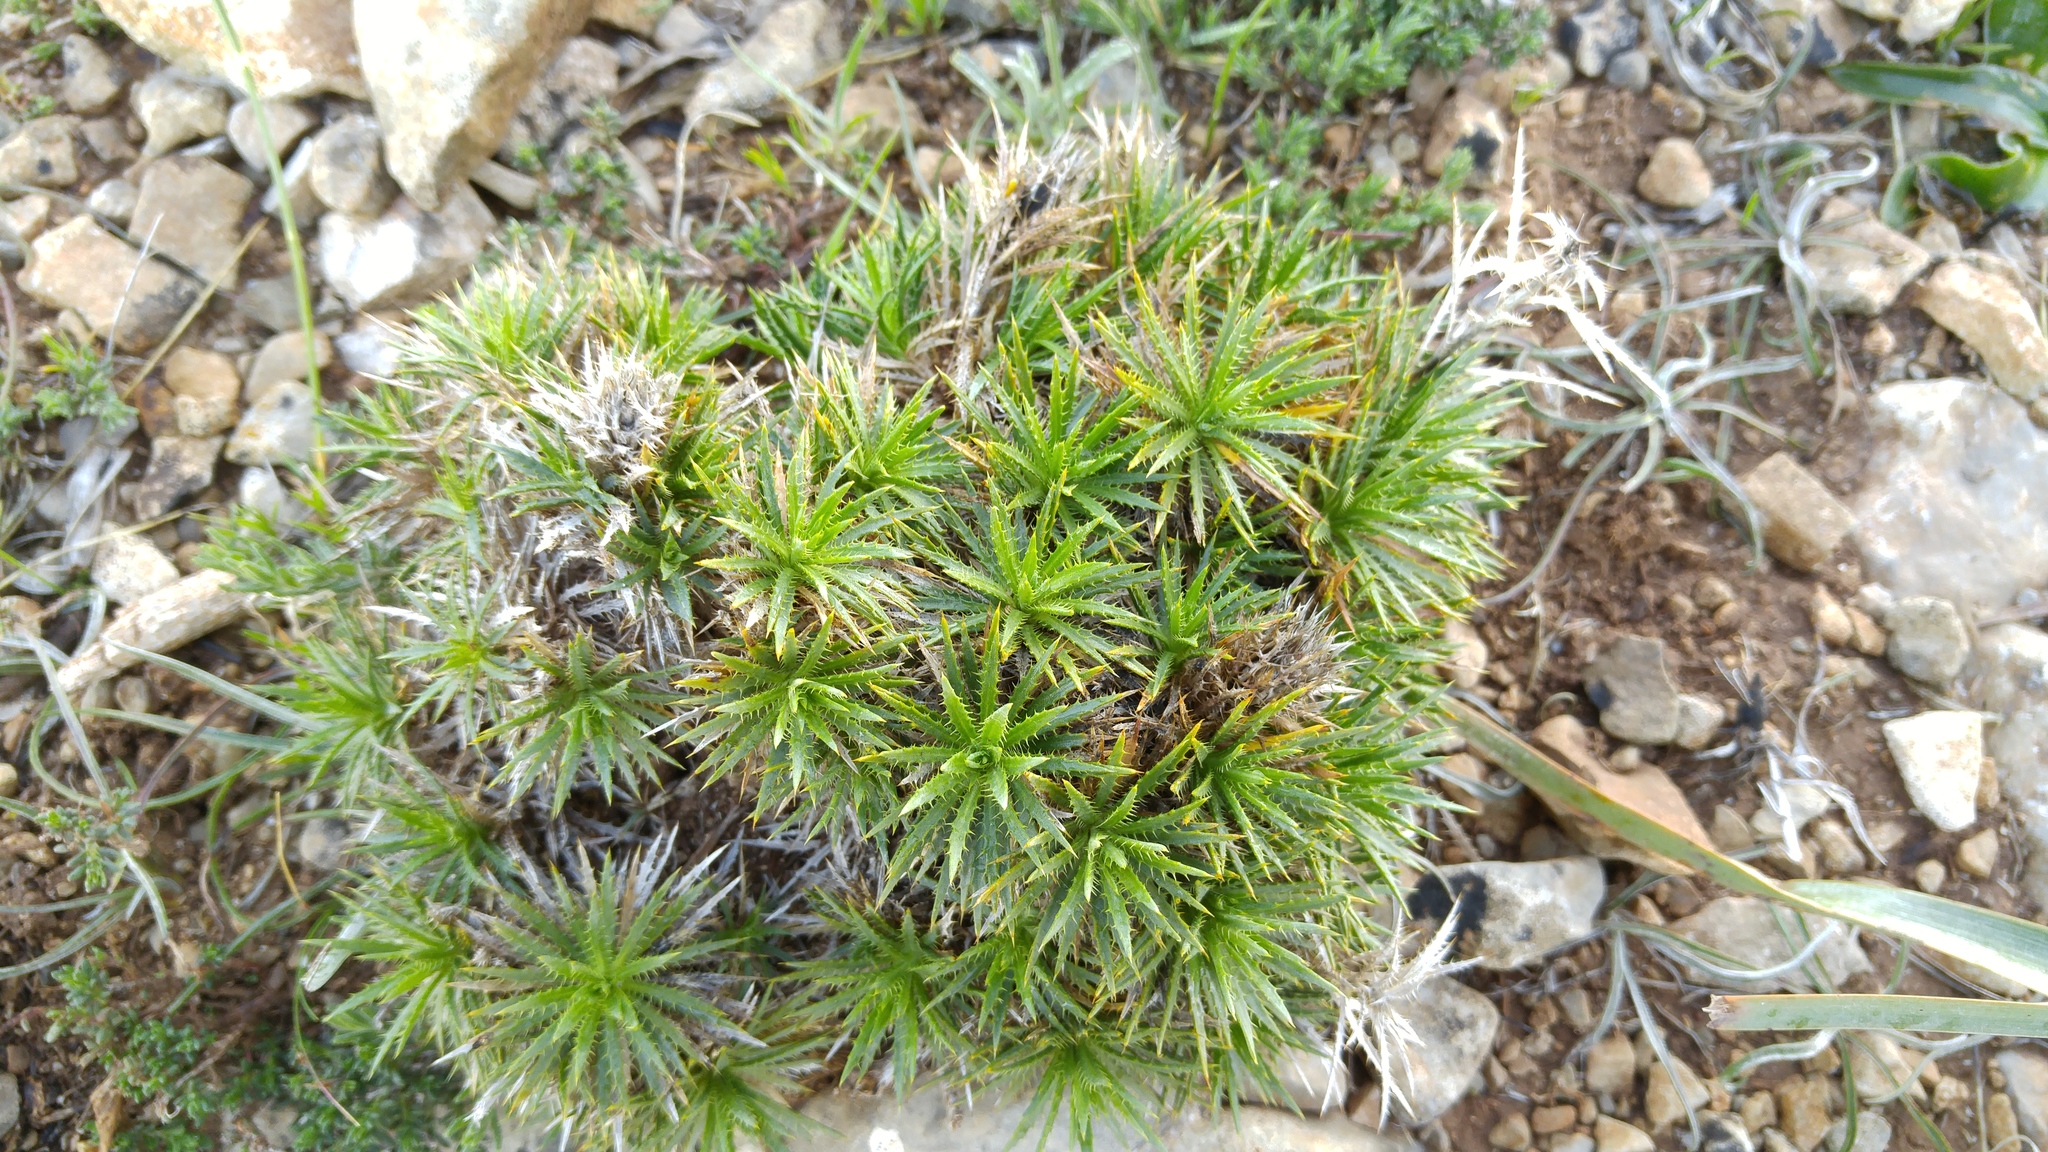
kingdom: Plantae
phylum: Tracheophyta
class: Magnoliopsida
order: Asterales
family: Asteraceae
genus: Atractylis
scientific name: Atractylis caespitosa
